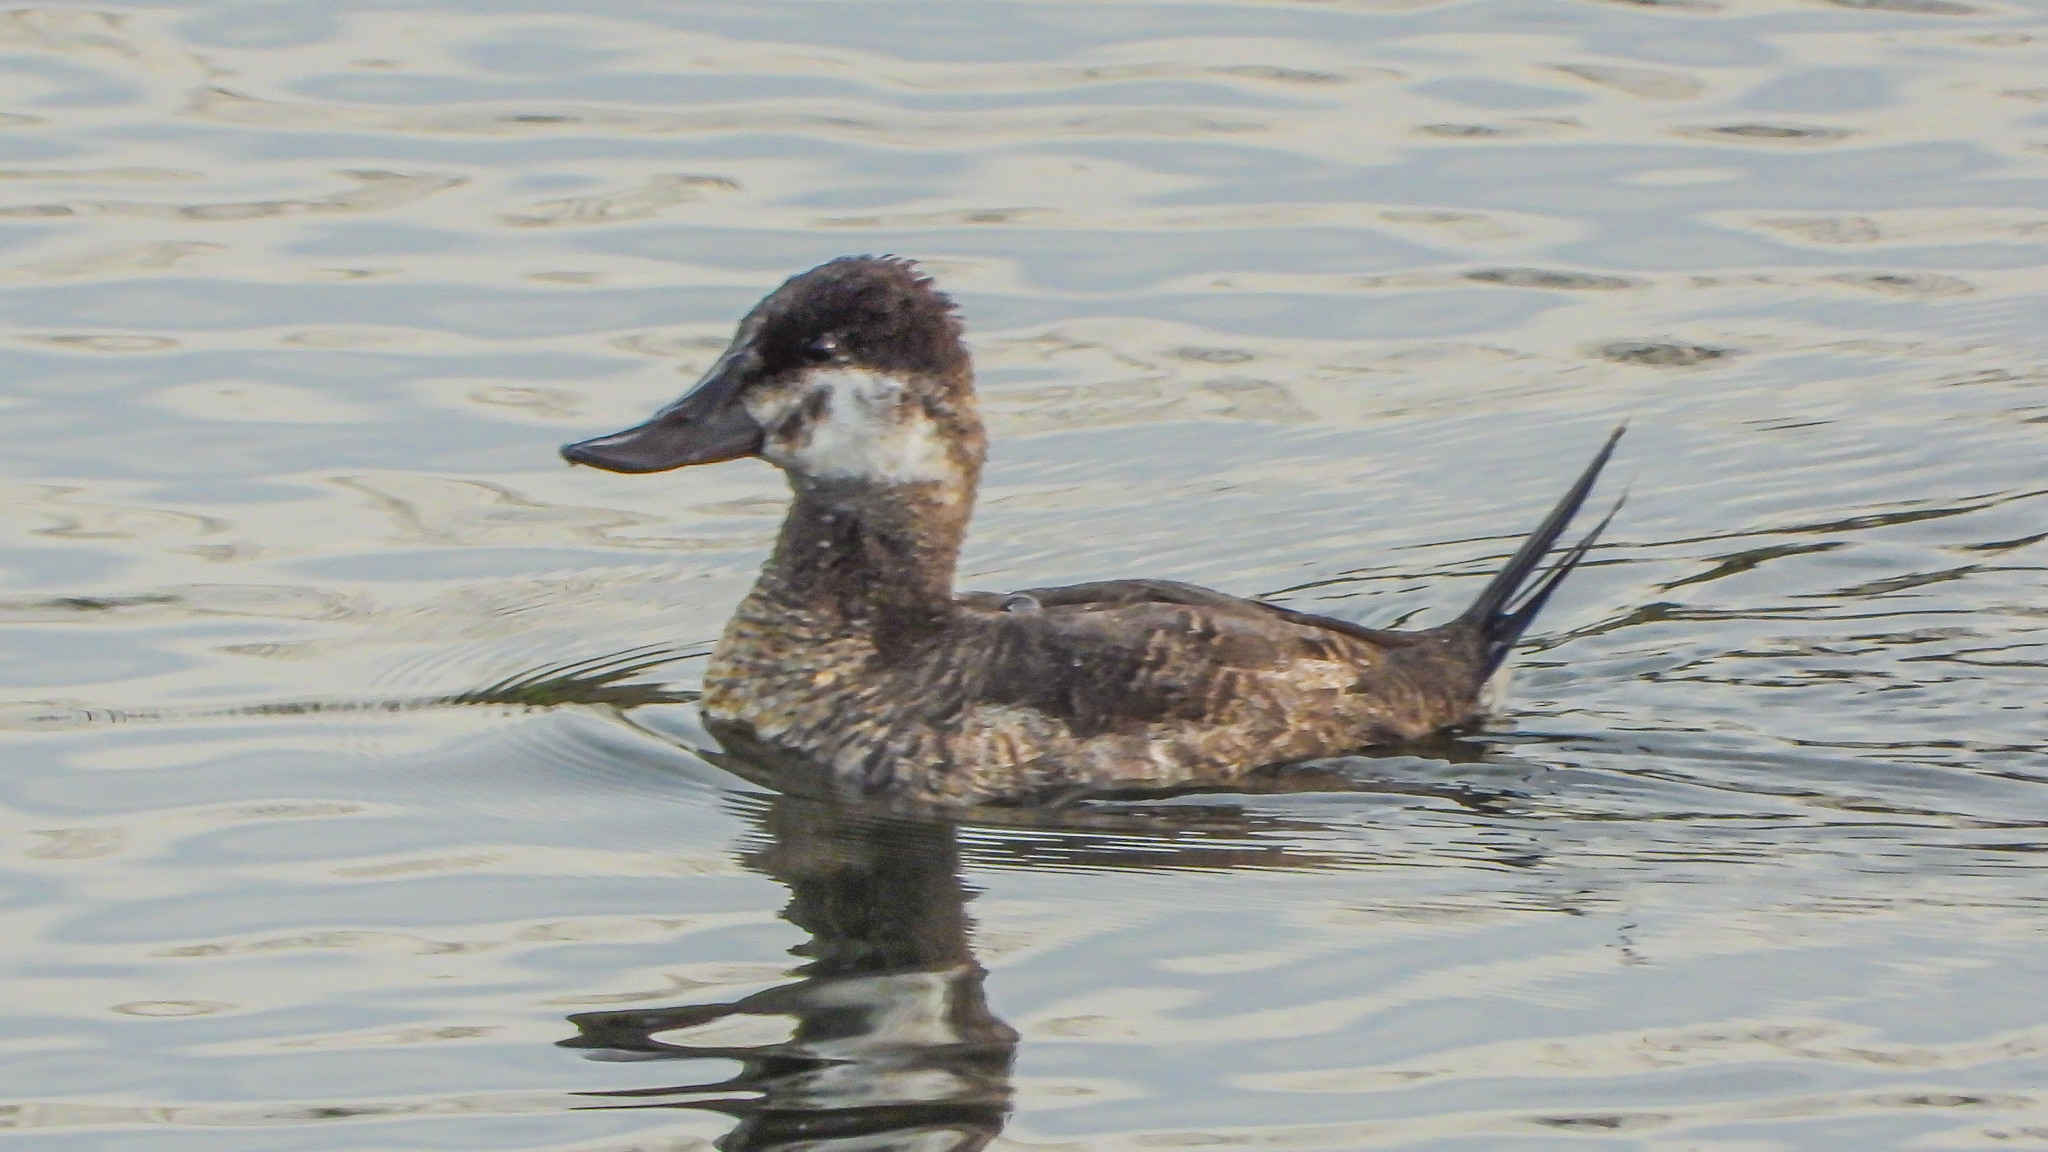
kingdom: Animalia
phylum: Chordata
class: Aves
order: Anseriformes
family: Anatidae
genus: Oxyura
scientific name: Oxyura jamaicensis
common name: Ruddy duck
